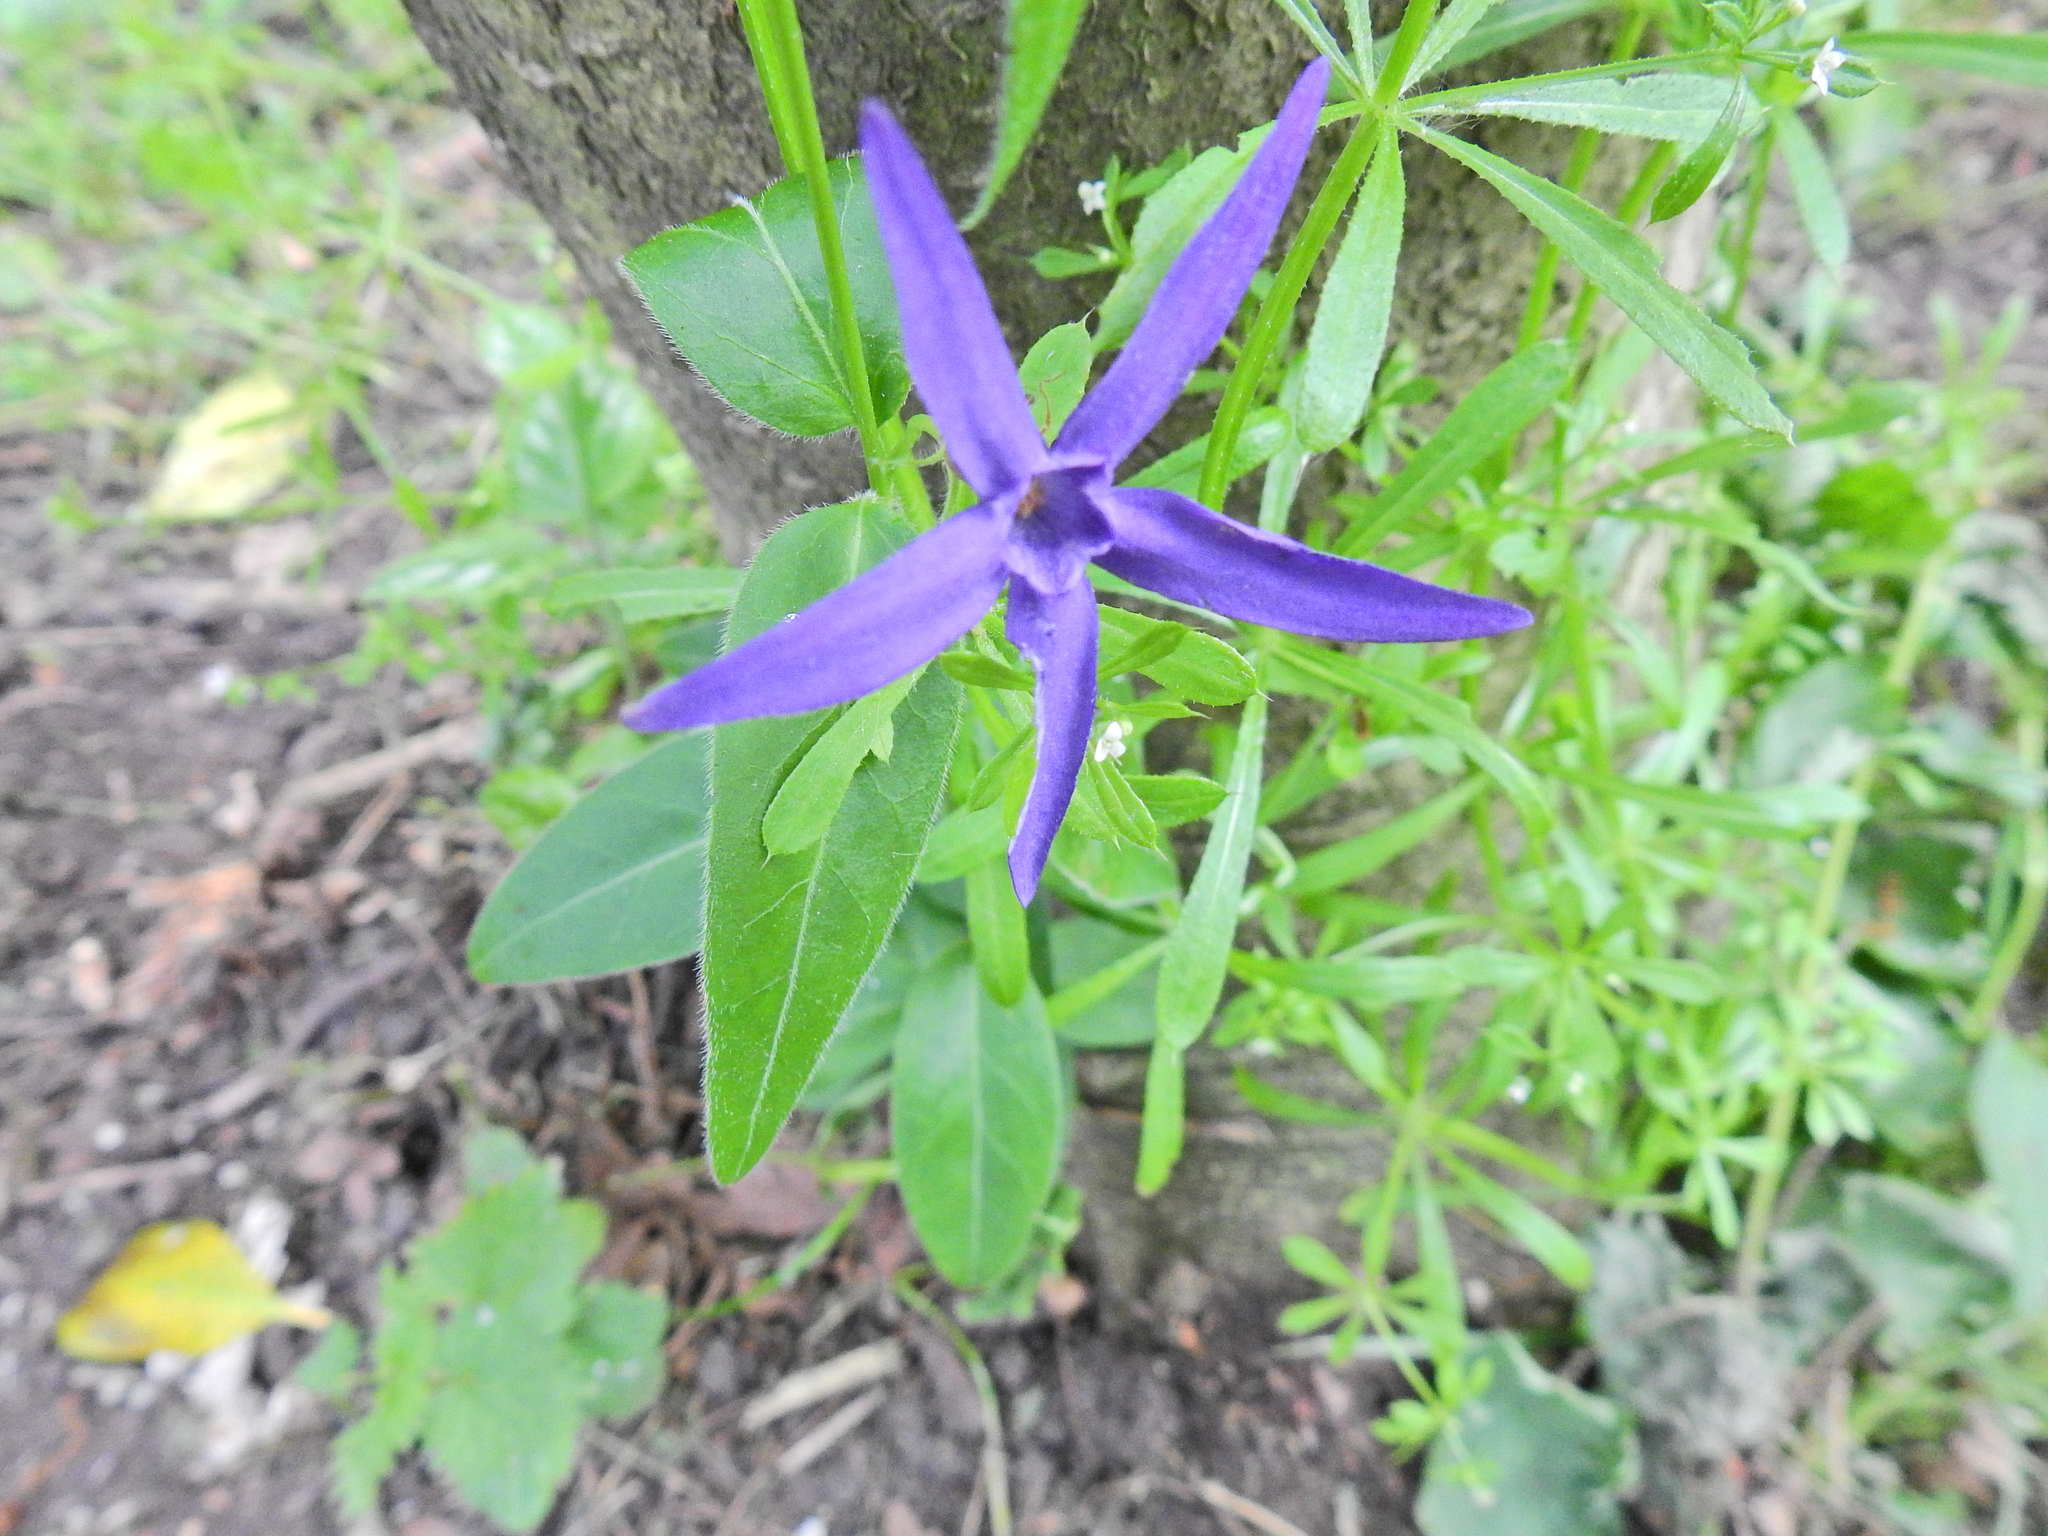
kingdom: Plantae
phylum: Tracheophyta
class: Magnoliopsida
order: Gentianales
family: Apocynaceae
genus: Vinca
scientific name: Vinca major
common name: Greater periwinkle
